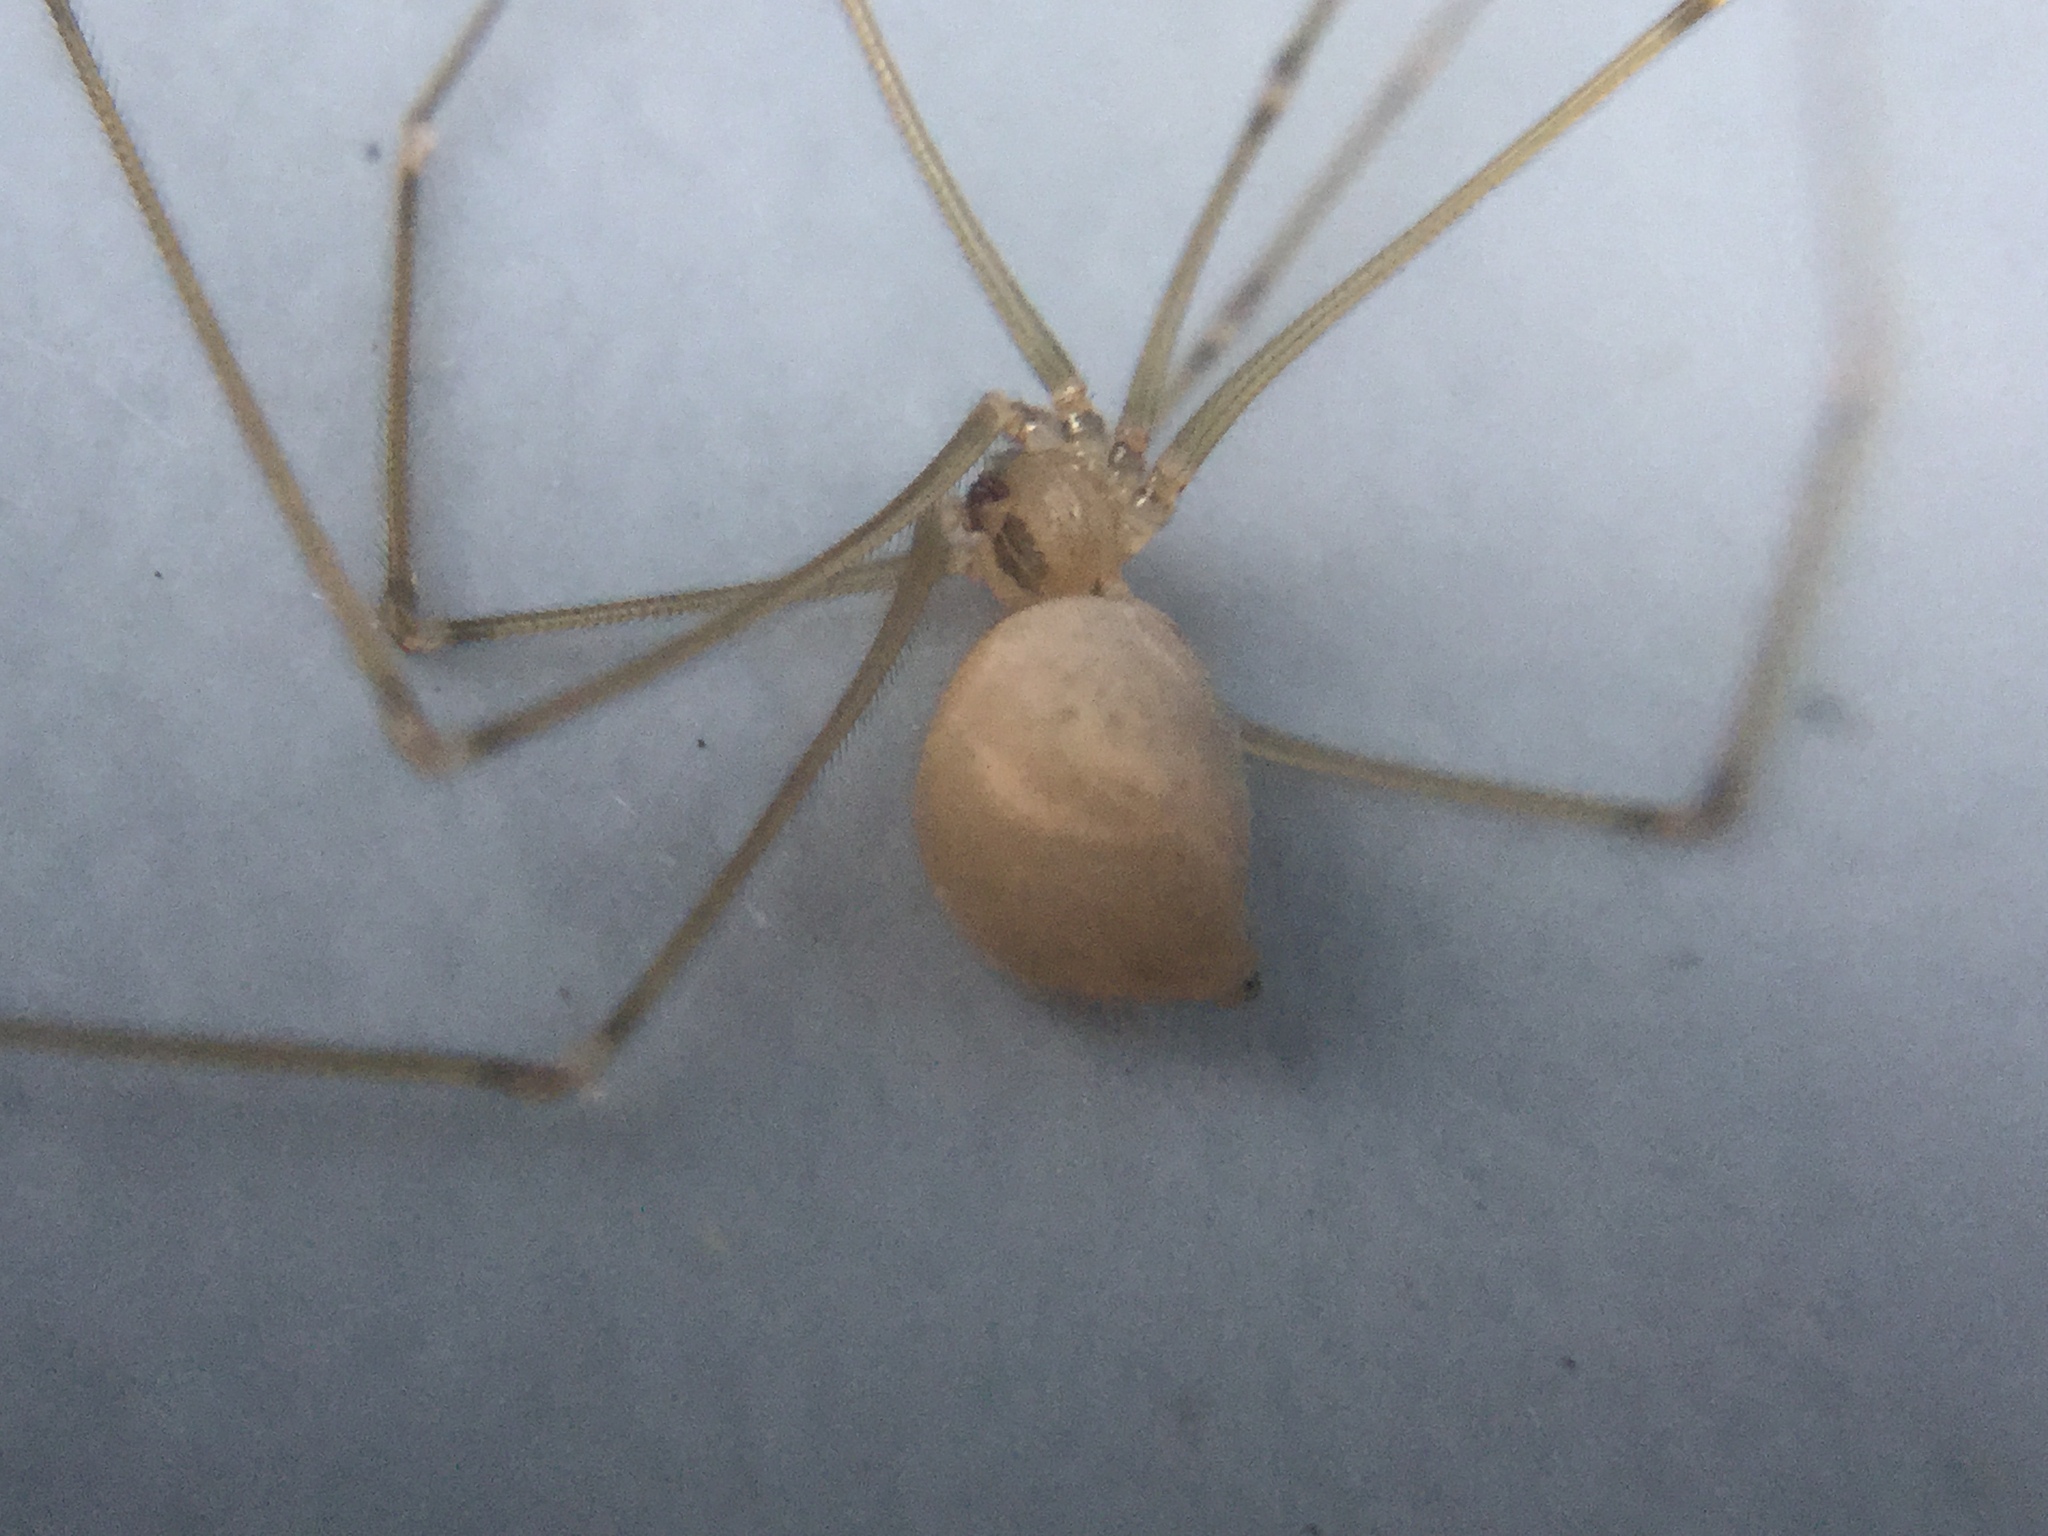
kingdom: Animalia
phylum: Arthropoda
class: Arachnida
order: Araneae
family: Pholcidae
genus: Pholcus
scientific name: Pholcus phalangioides
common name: Longbodied cellar spider
